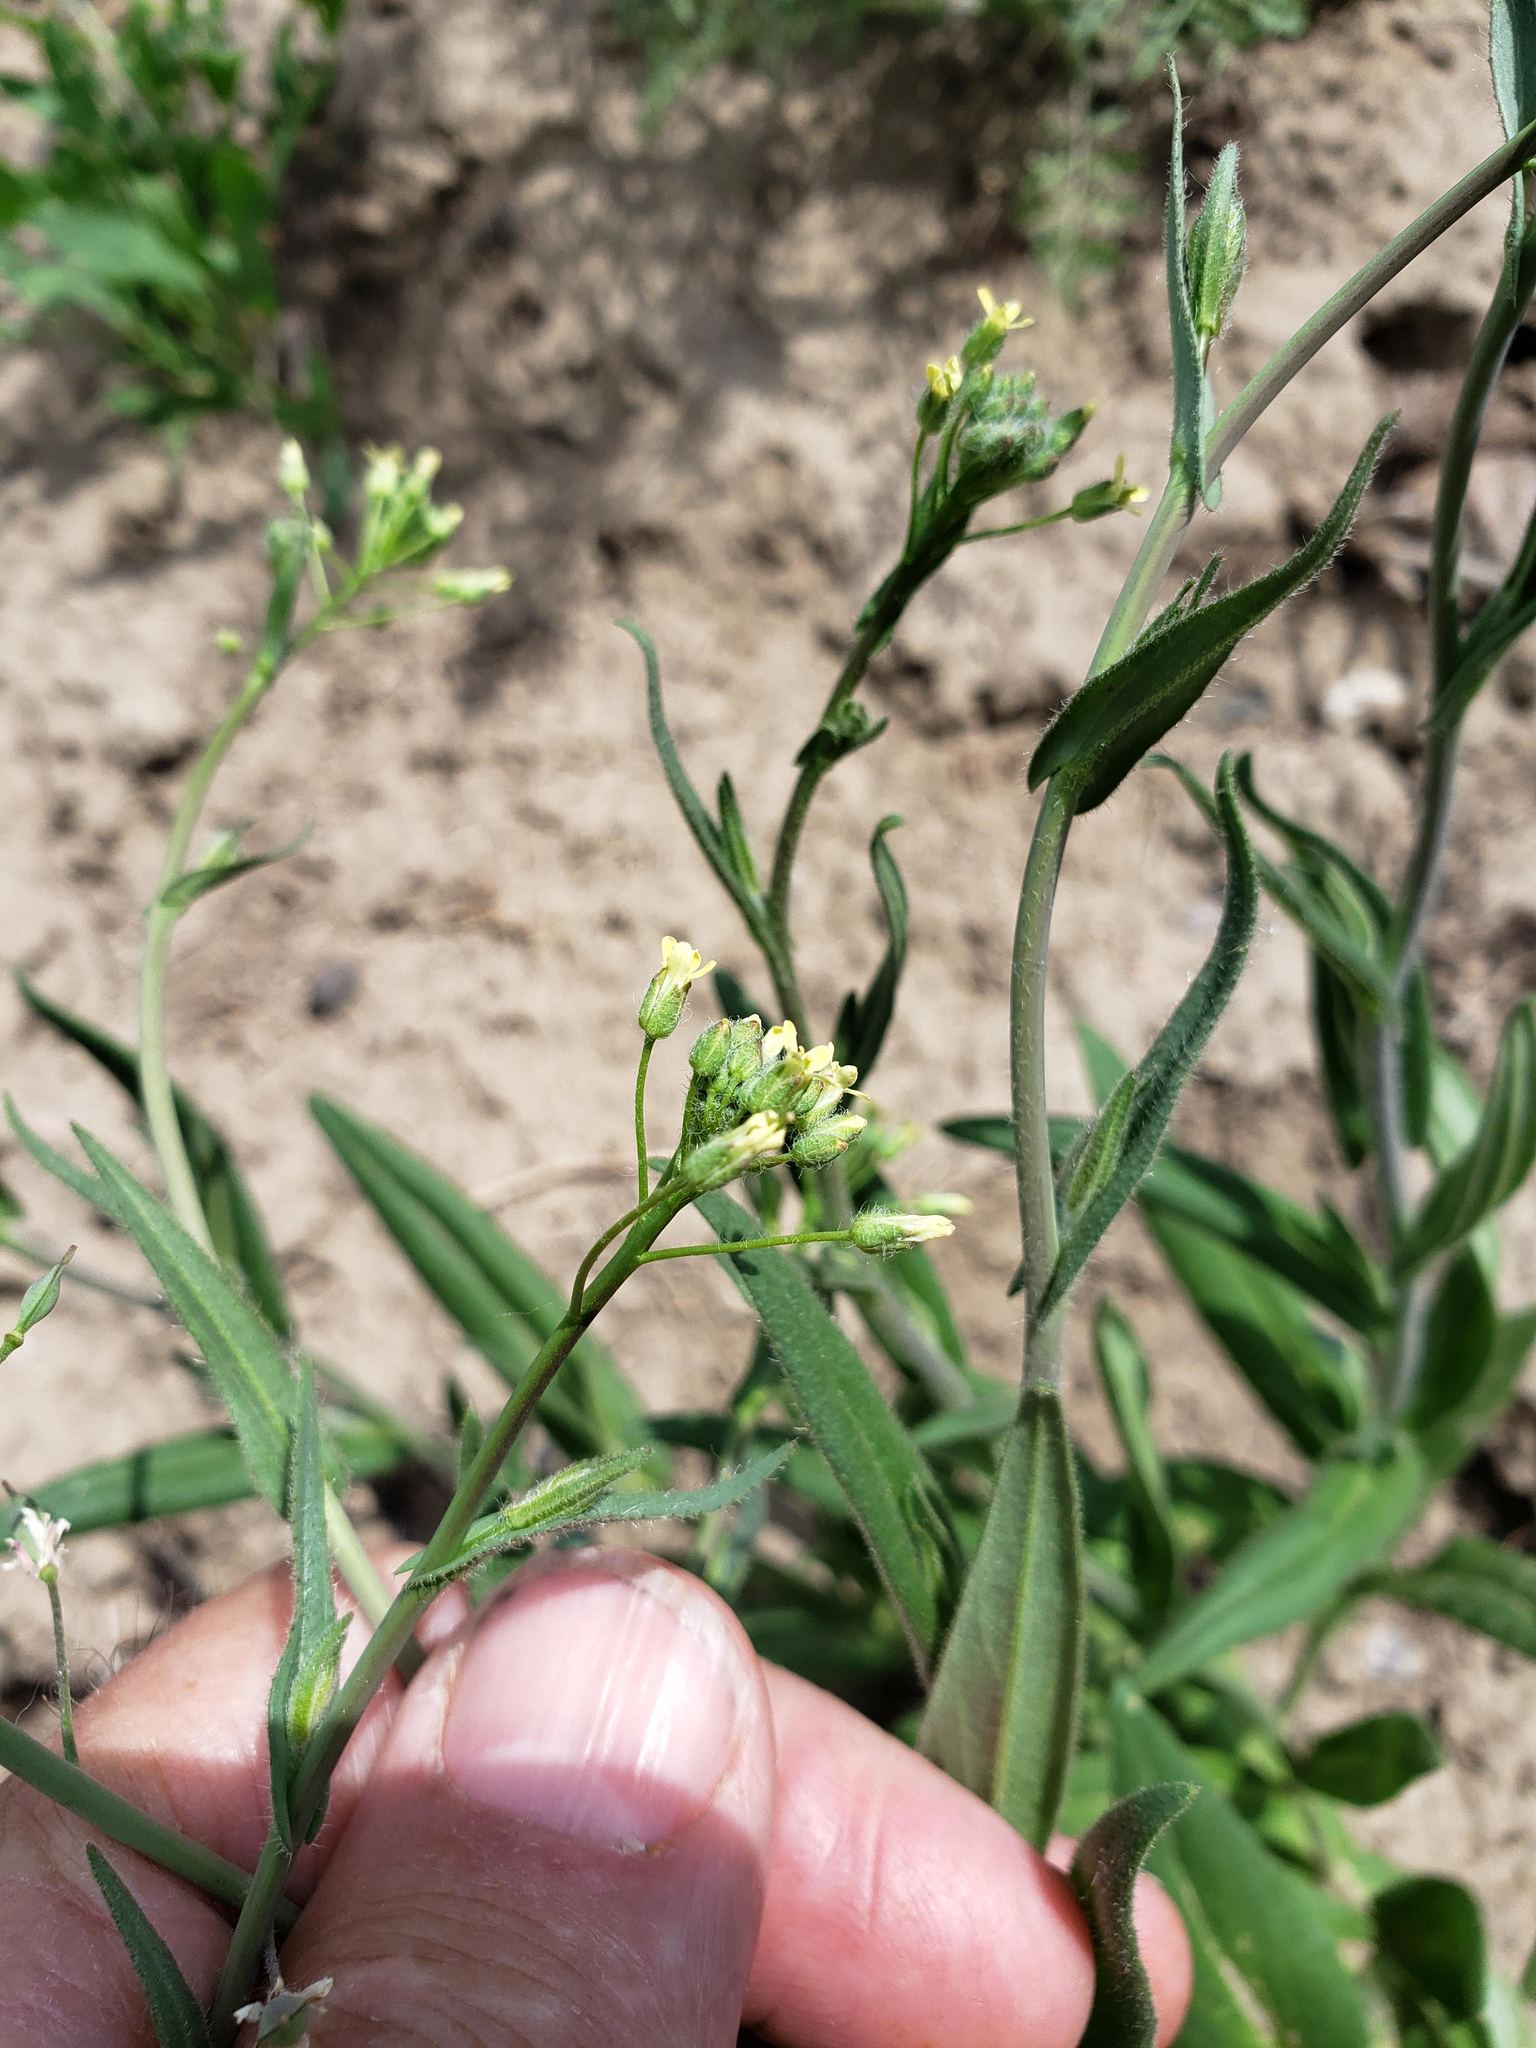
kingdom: Plantae
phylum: Tracheophyta
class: Magnoliopsida
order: Brassicales
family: Brassicaceae
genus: Capsella
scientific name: Capsella bursa-pastoris
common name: Shepherd's purse
